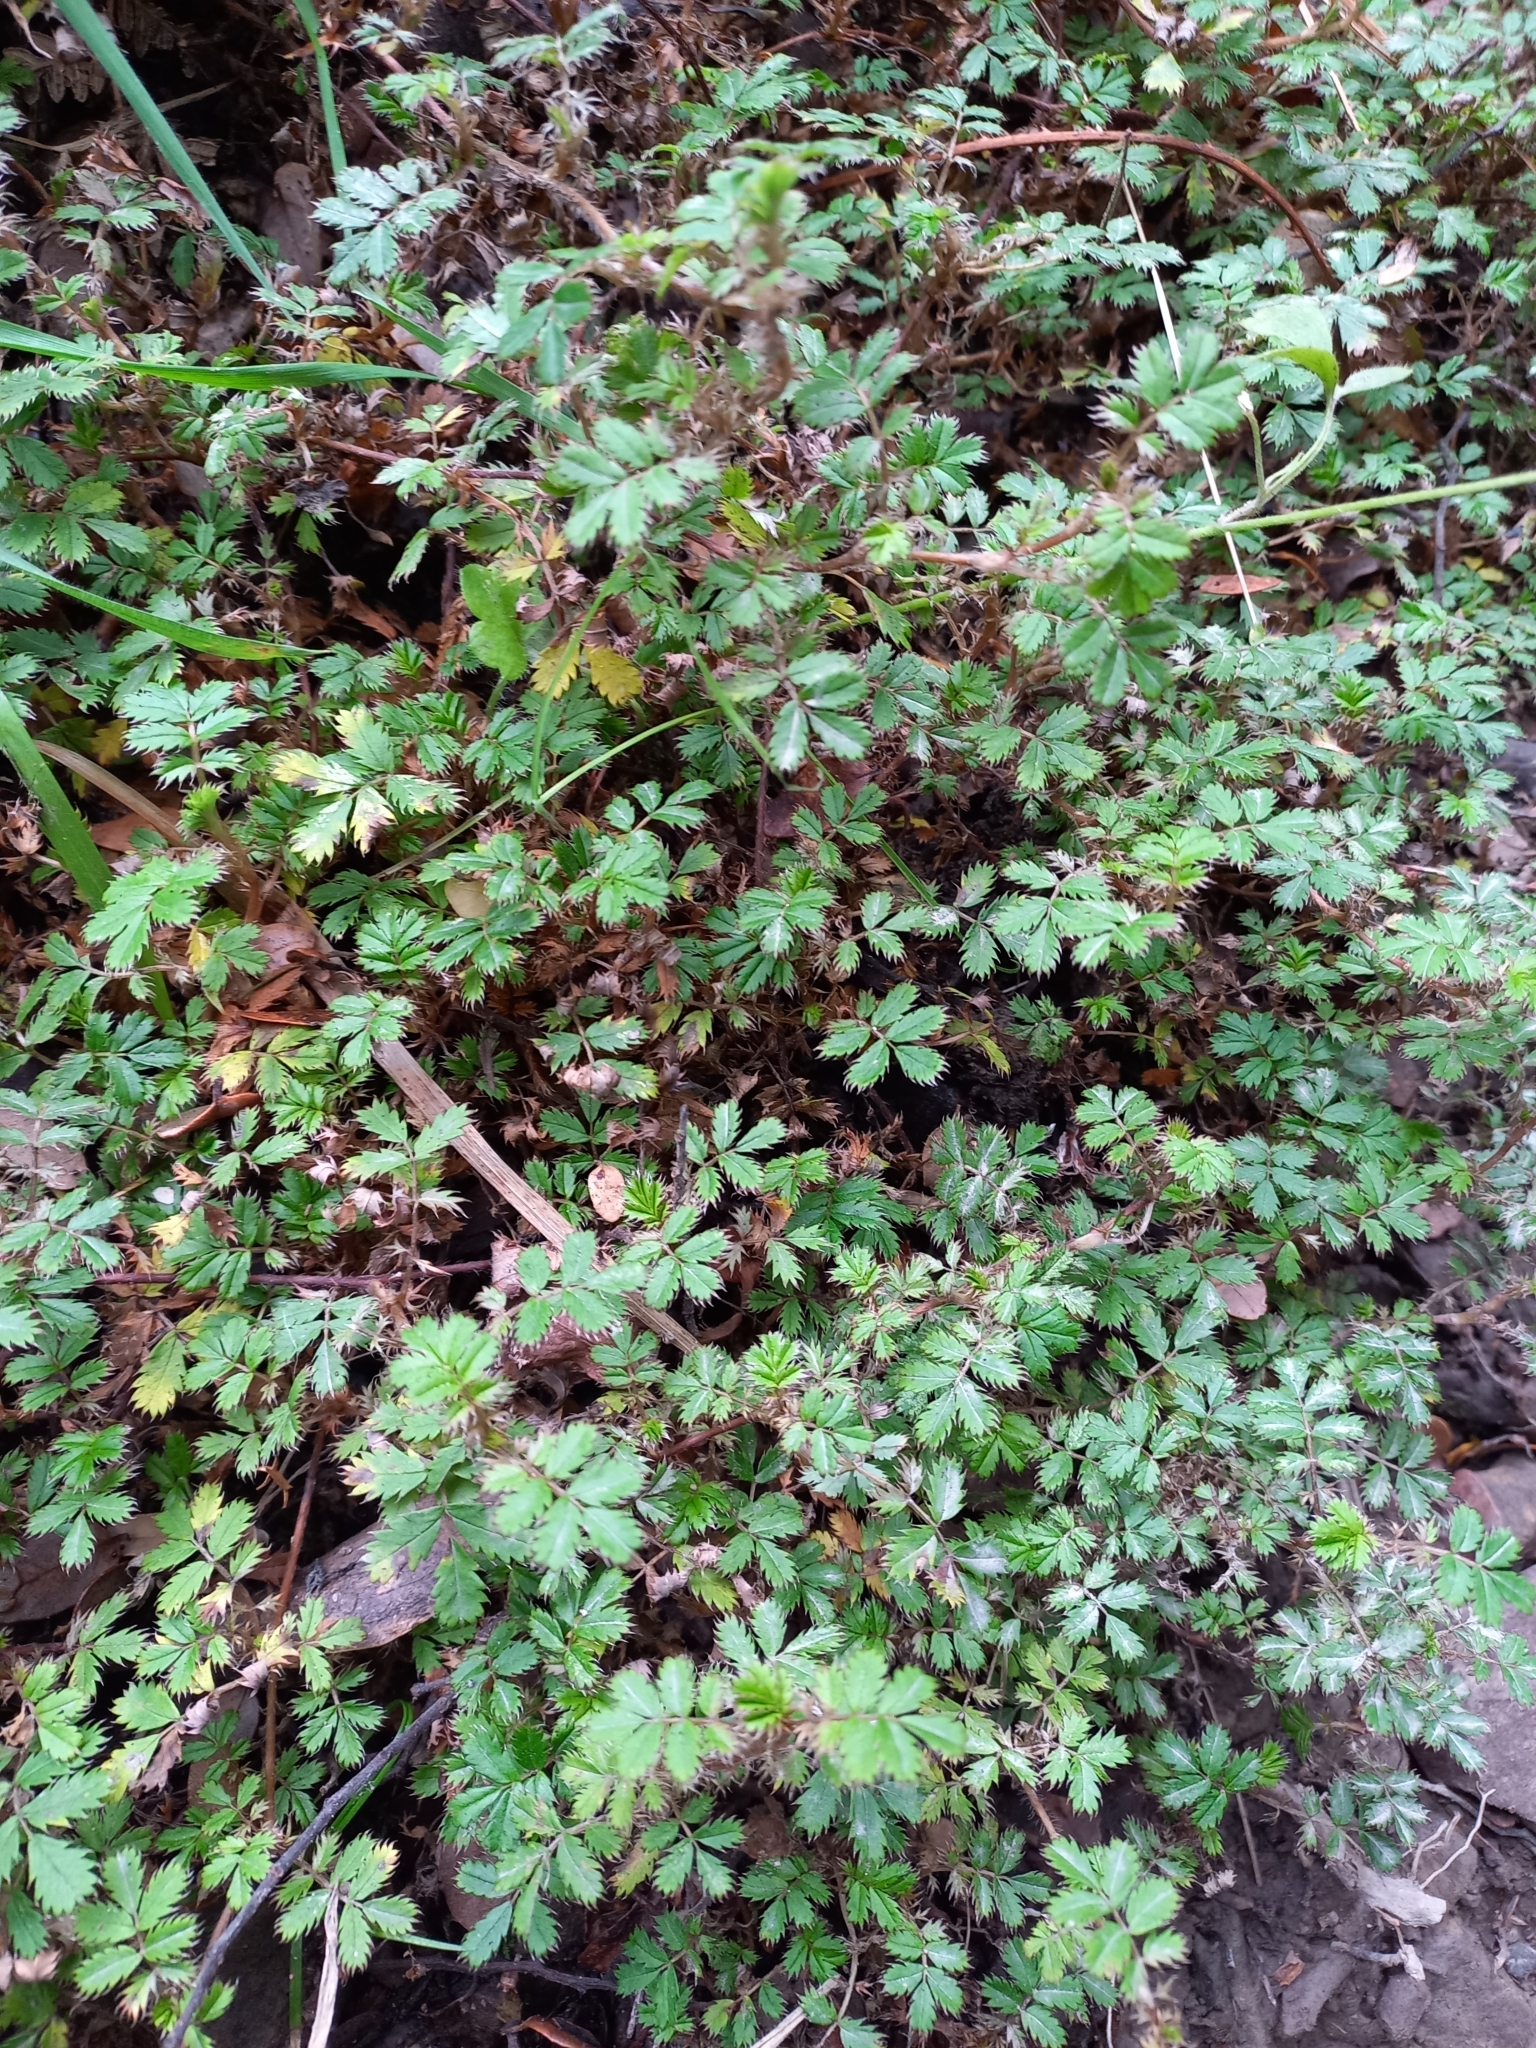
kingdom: Plantae
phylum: Tracheophyta
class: Magnoliopsida
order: Rosales
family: Rosaceae
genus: Acaena
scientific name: Acaena anserinifolia
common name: Bronze pirri-pirri-bur
